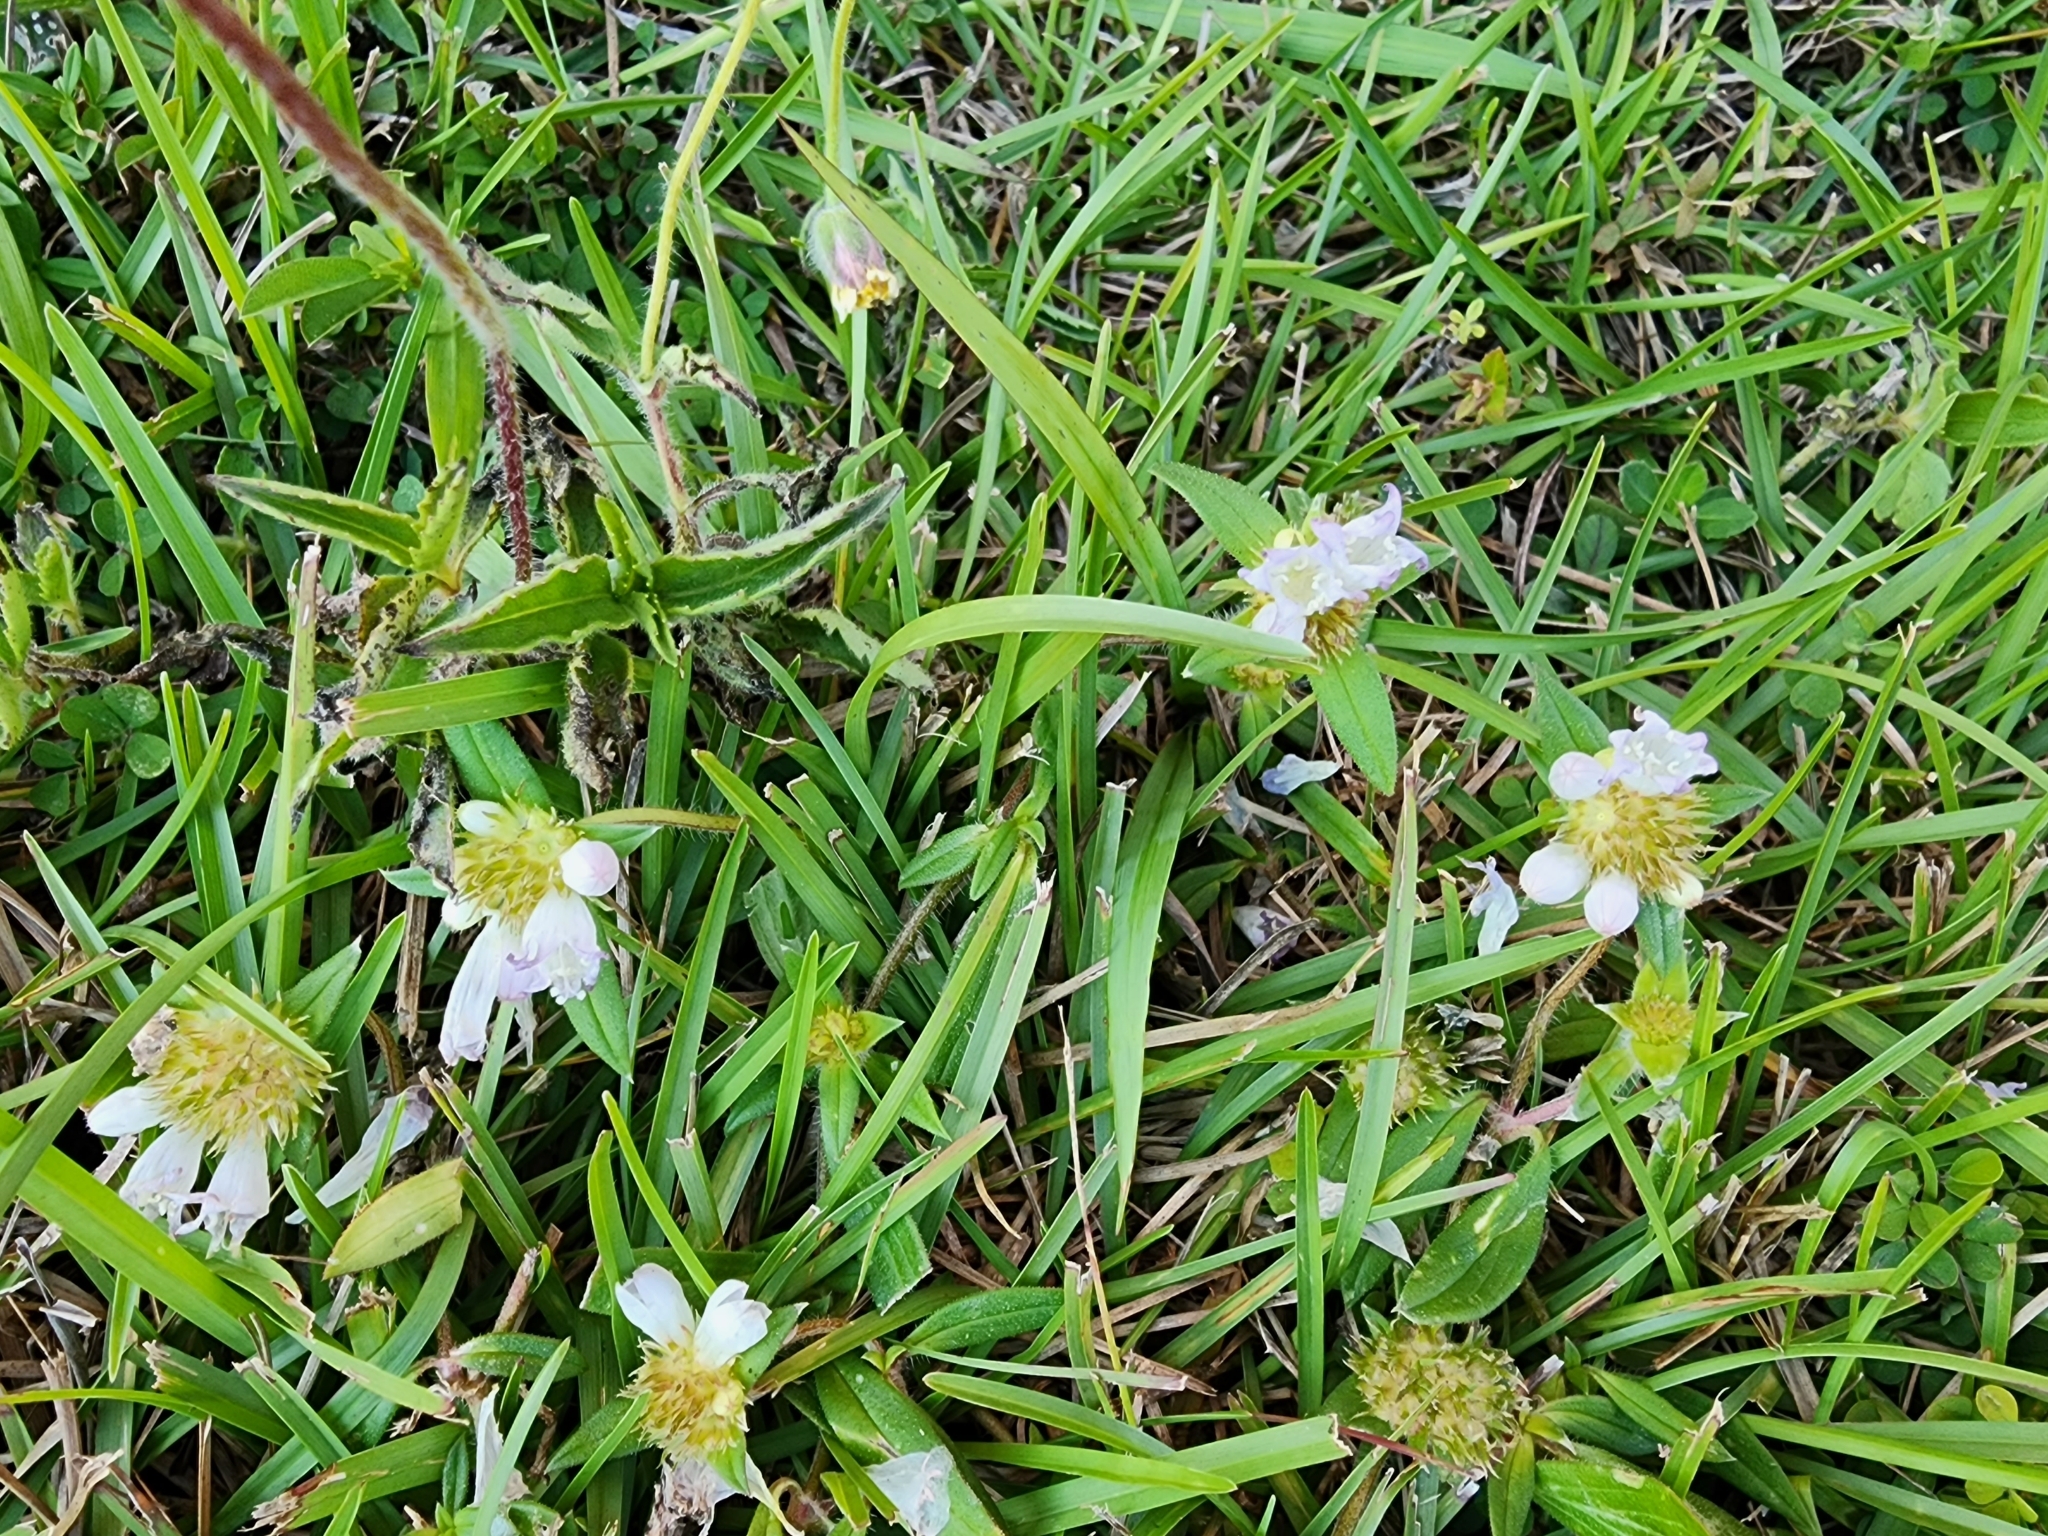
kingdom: Plantae
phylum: Tracheophyta
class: Magnoliopsida
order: Gentianales
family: Rubiaceae
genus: Richardia
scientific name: Richardia grandiflora
